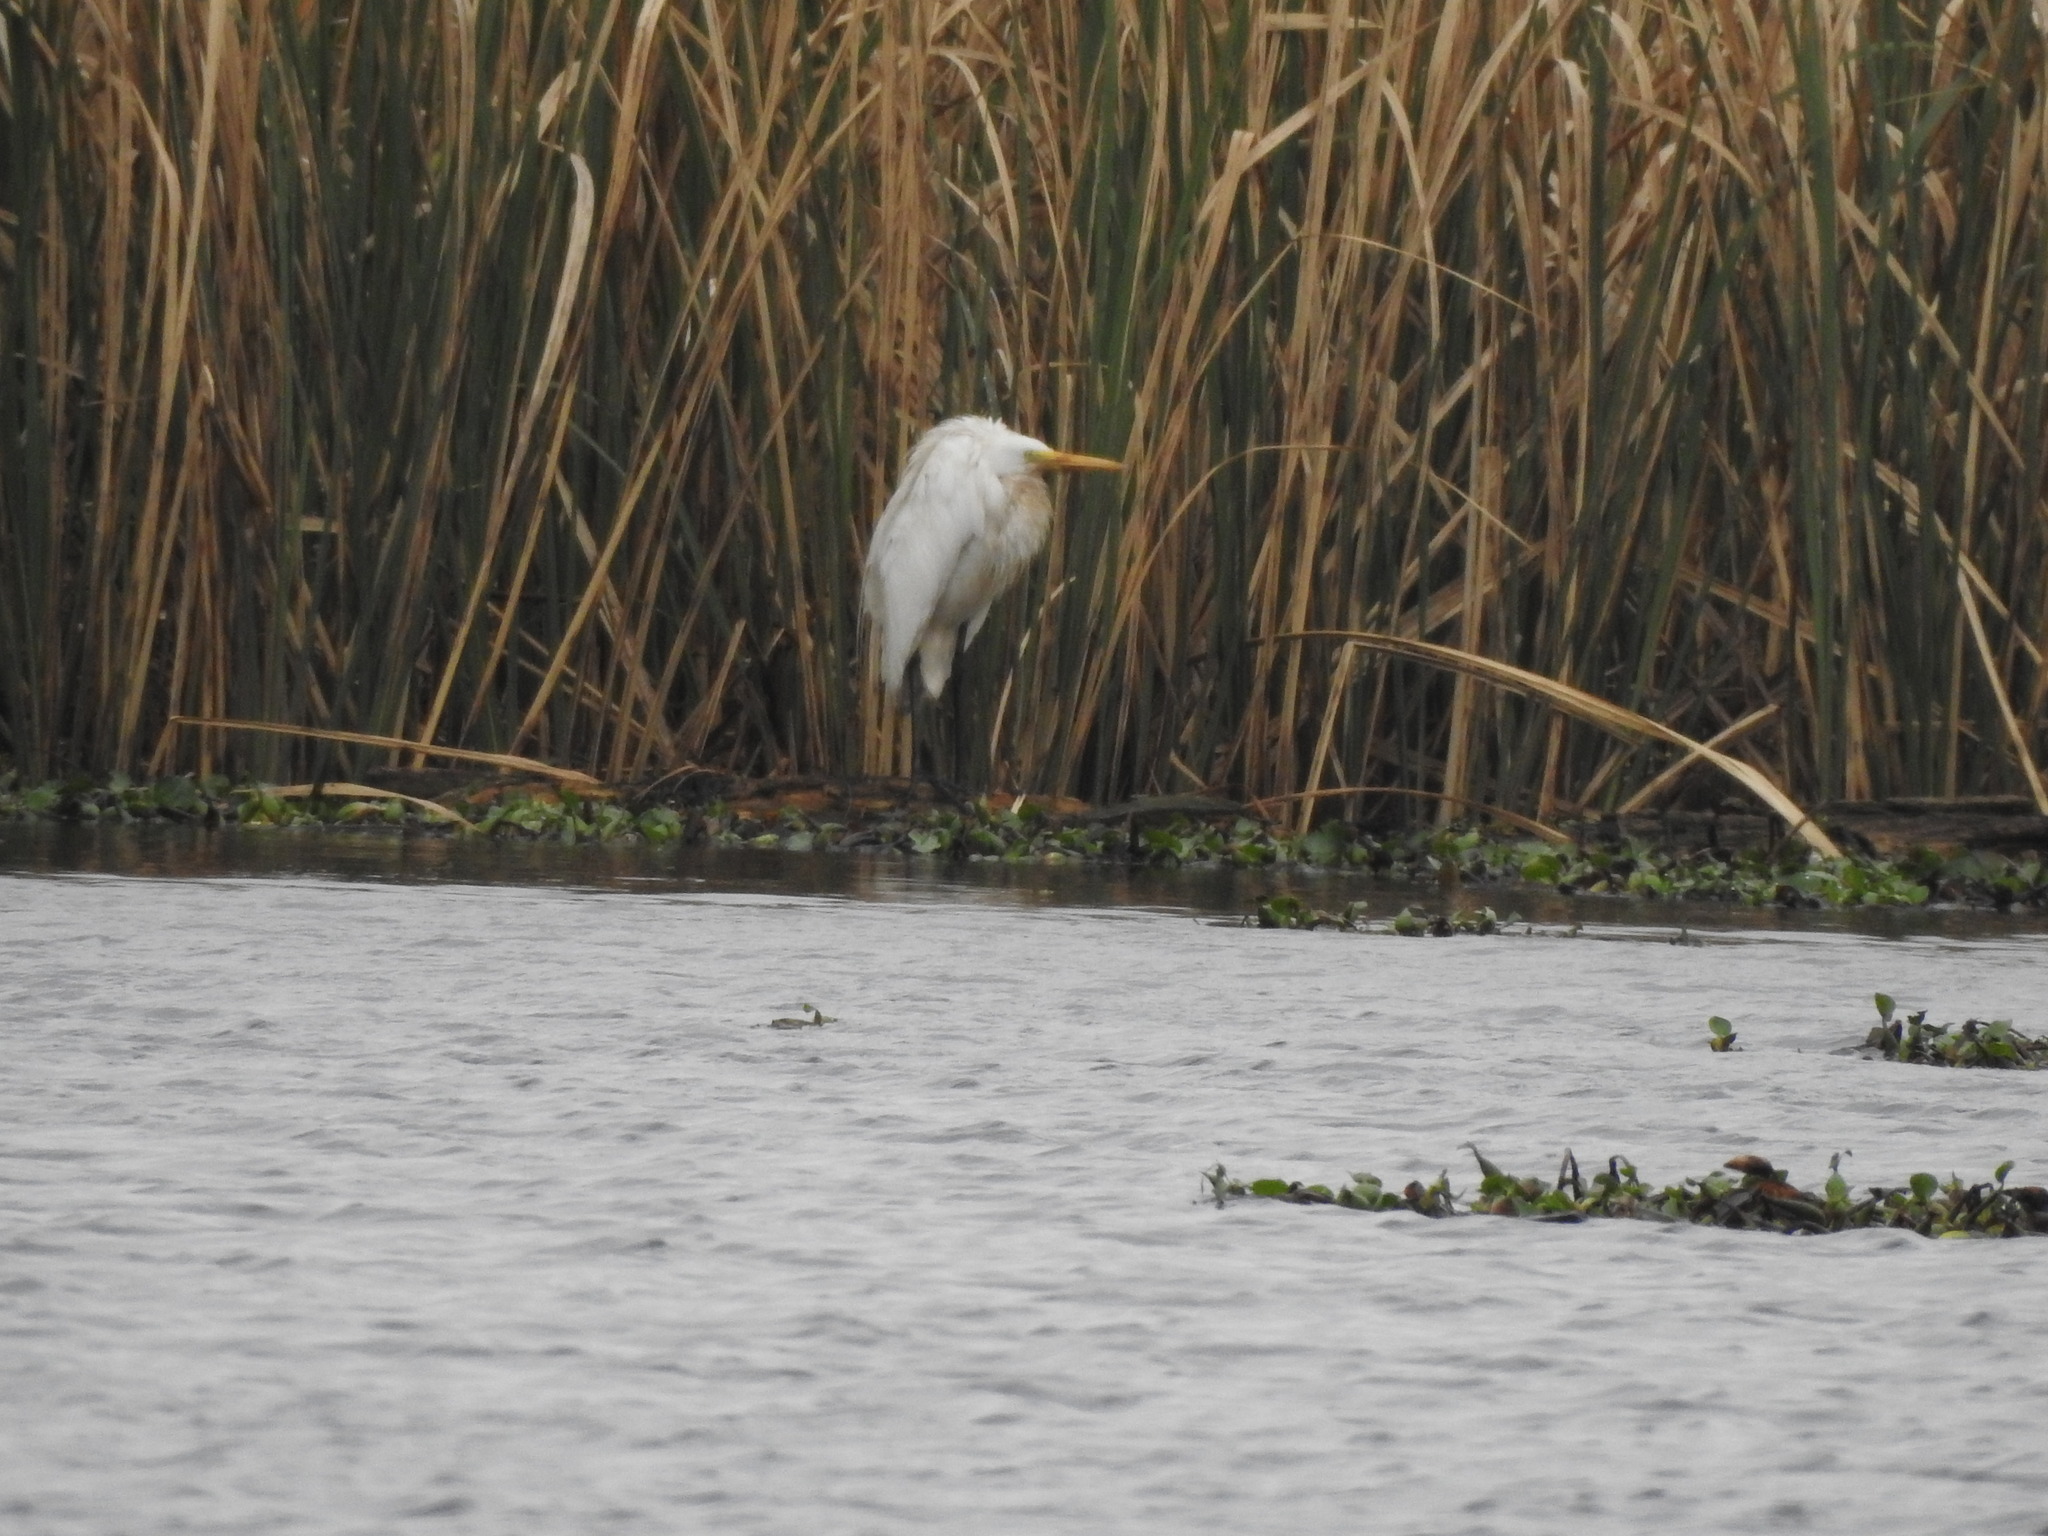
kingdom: Animalia
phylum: Chordata
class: Aves
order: Pelecaniformes
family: Ardeidae
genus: Ardea
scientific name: Ardea alba
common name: Great egret
